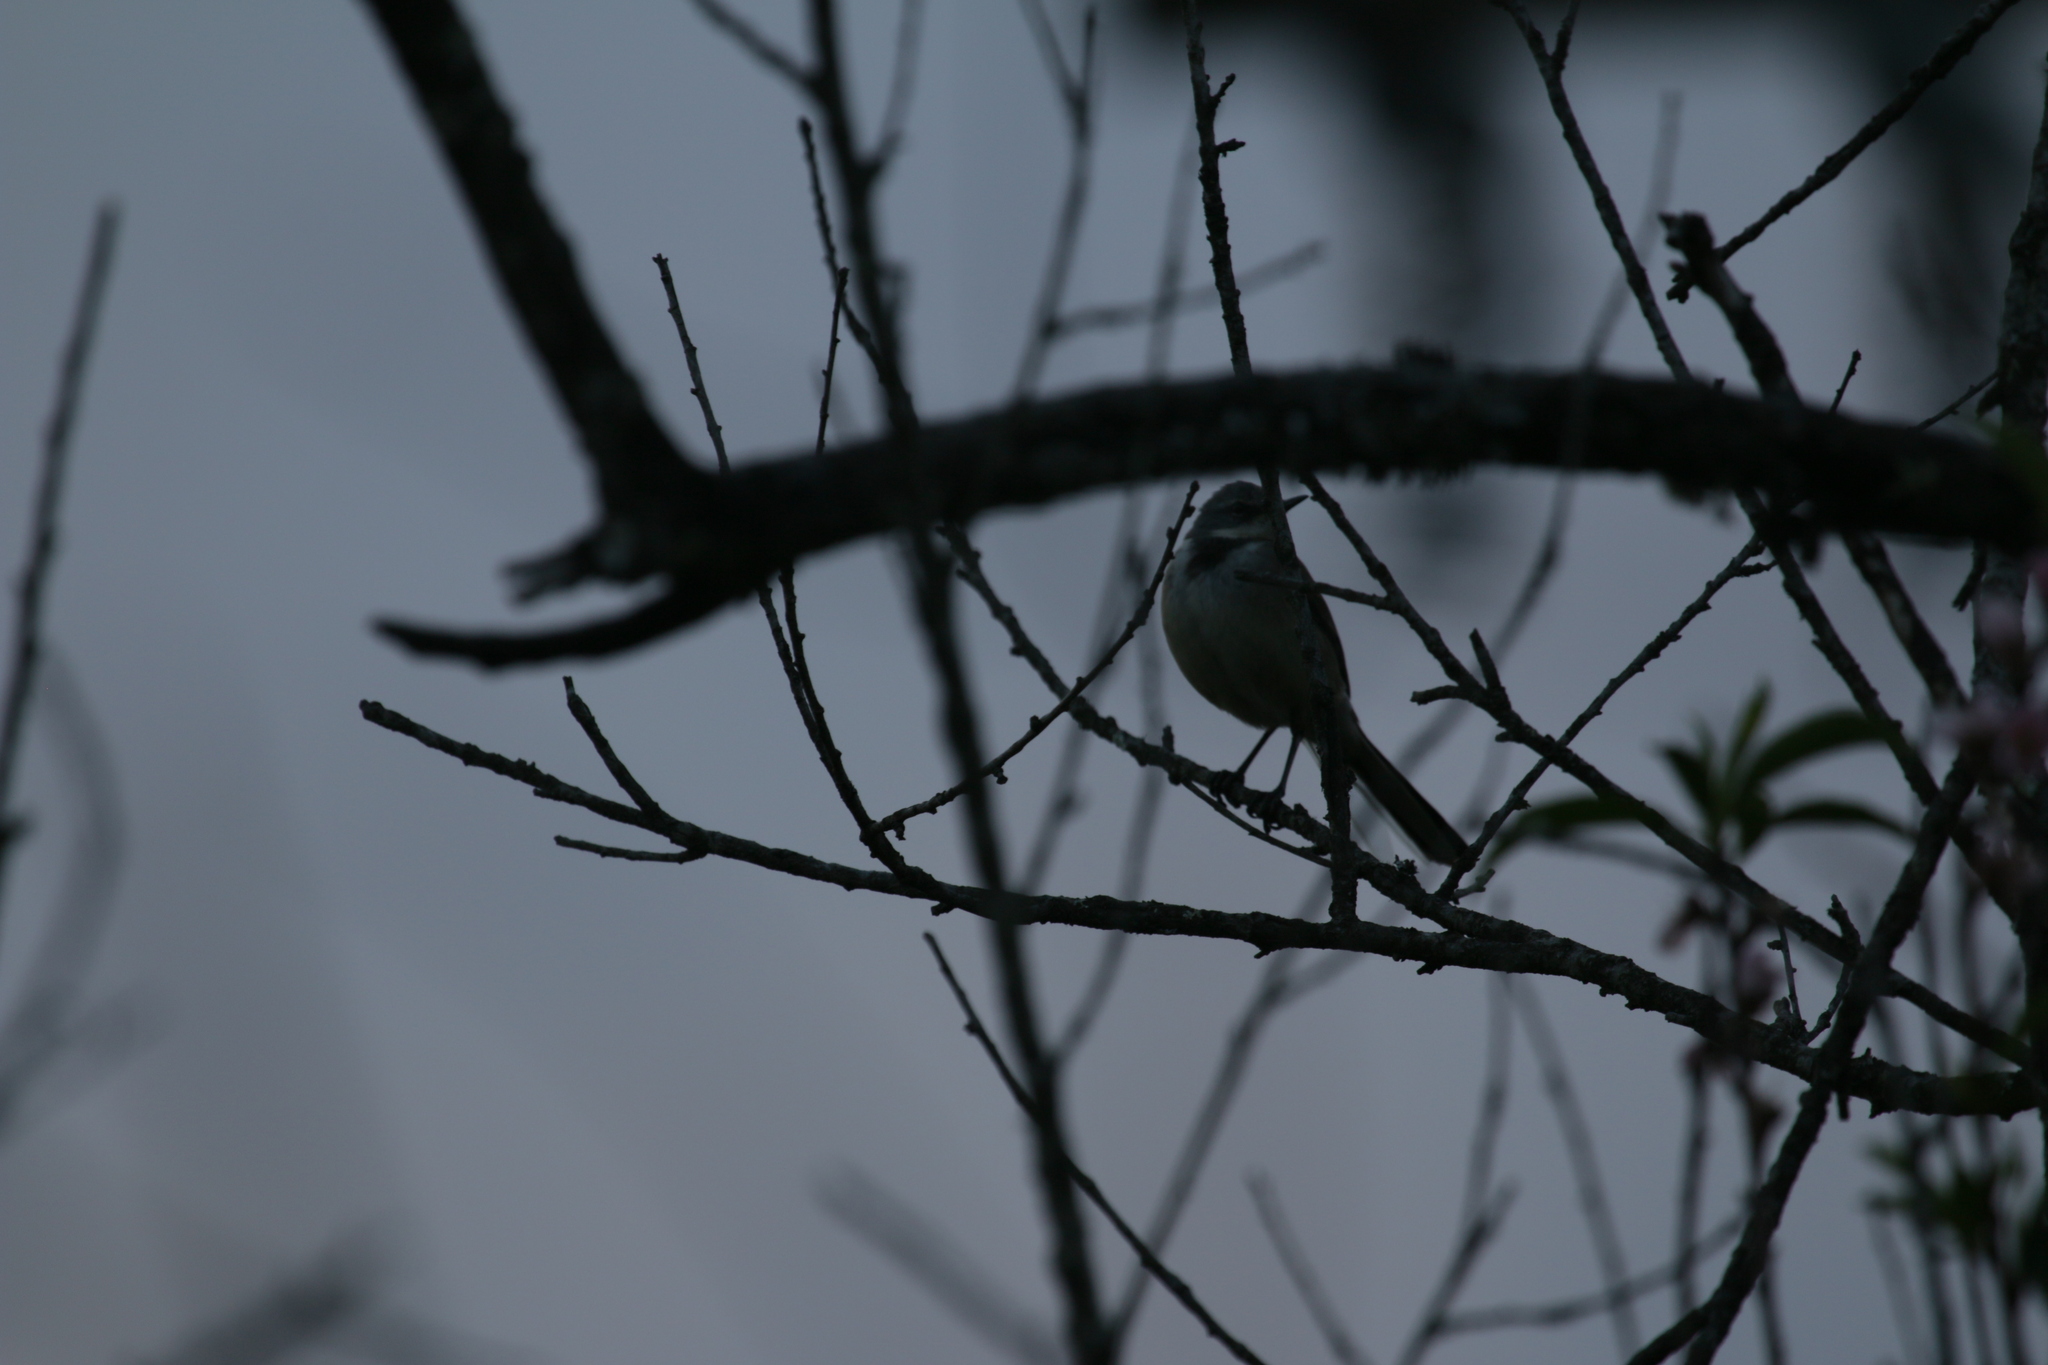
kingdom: Animalia
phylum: Chordata
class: Aves
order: Passeriformes
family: Motacillidae
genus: Motacilla
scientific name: Motacilla capensis
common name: Cape wagtail
